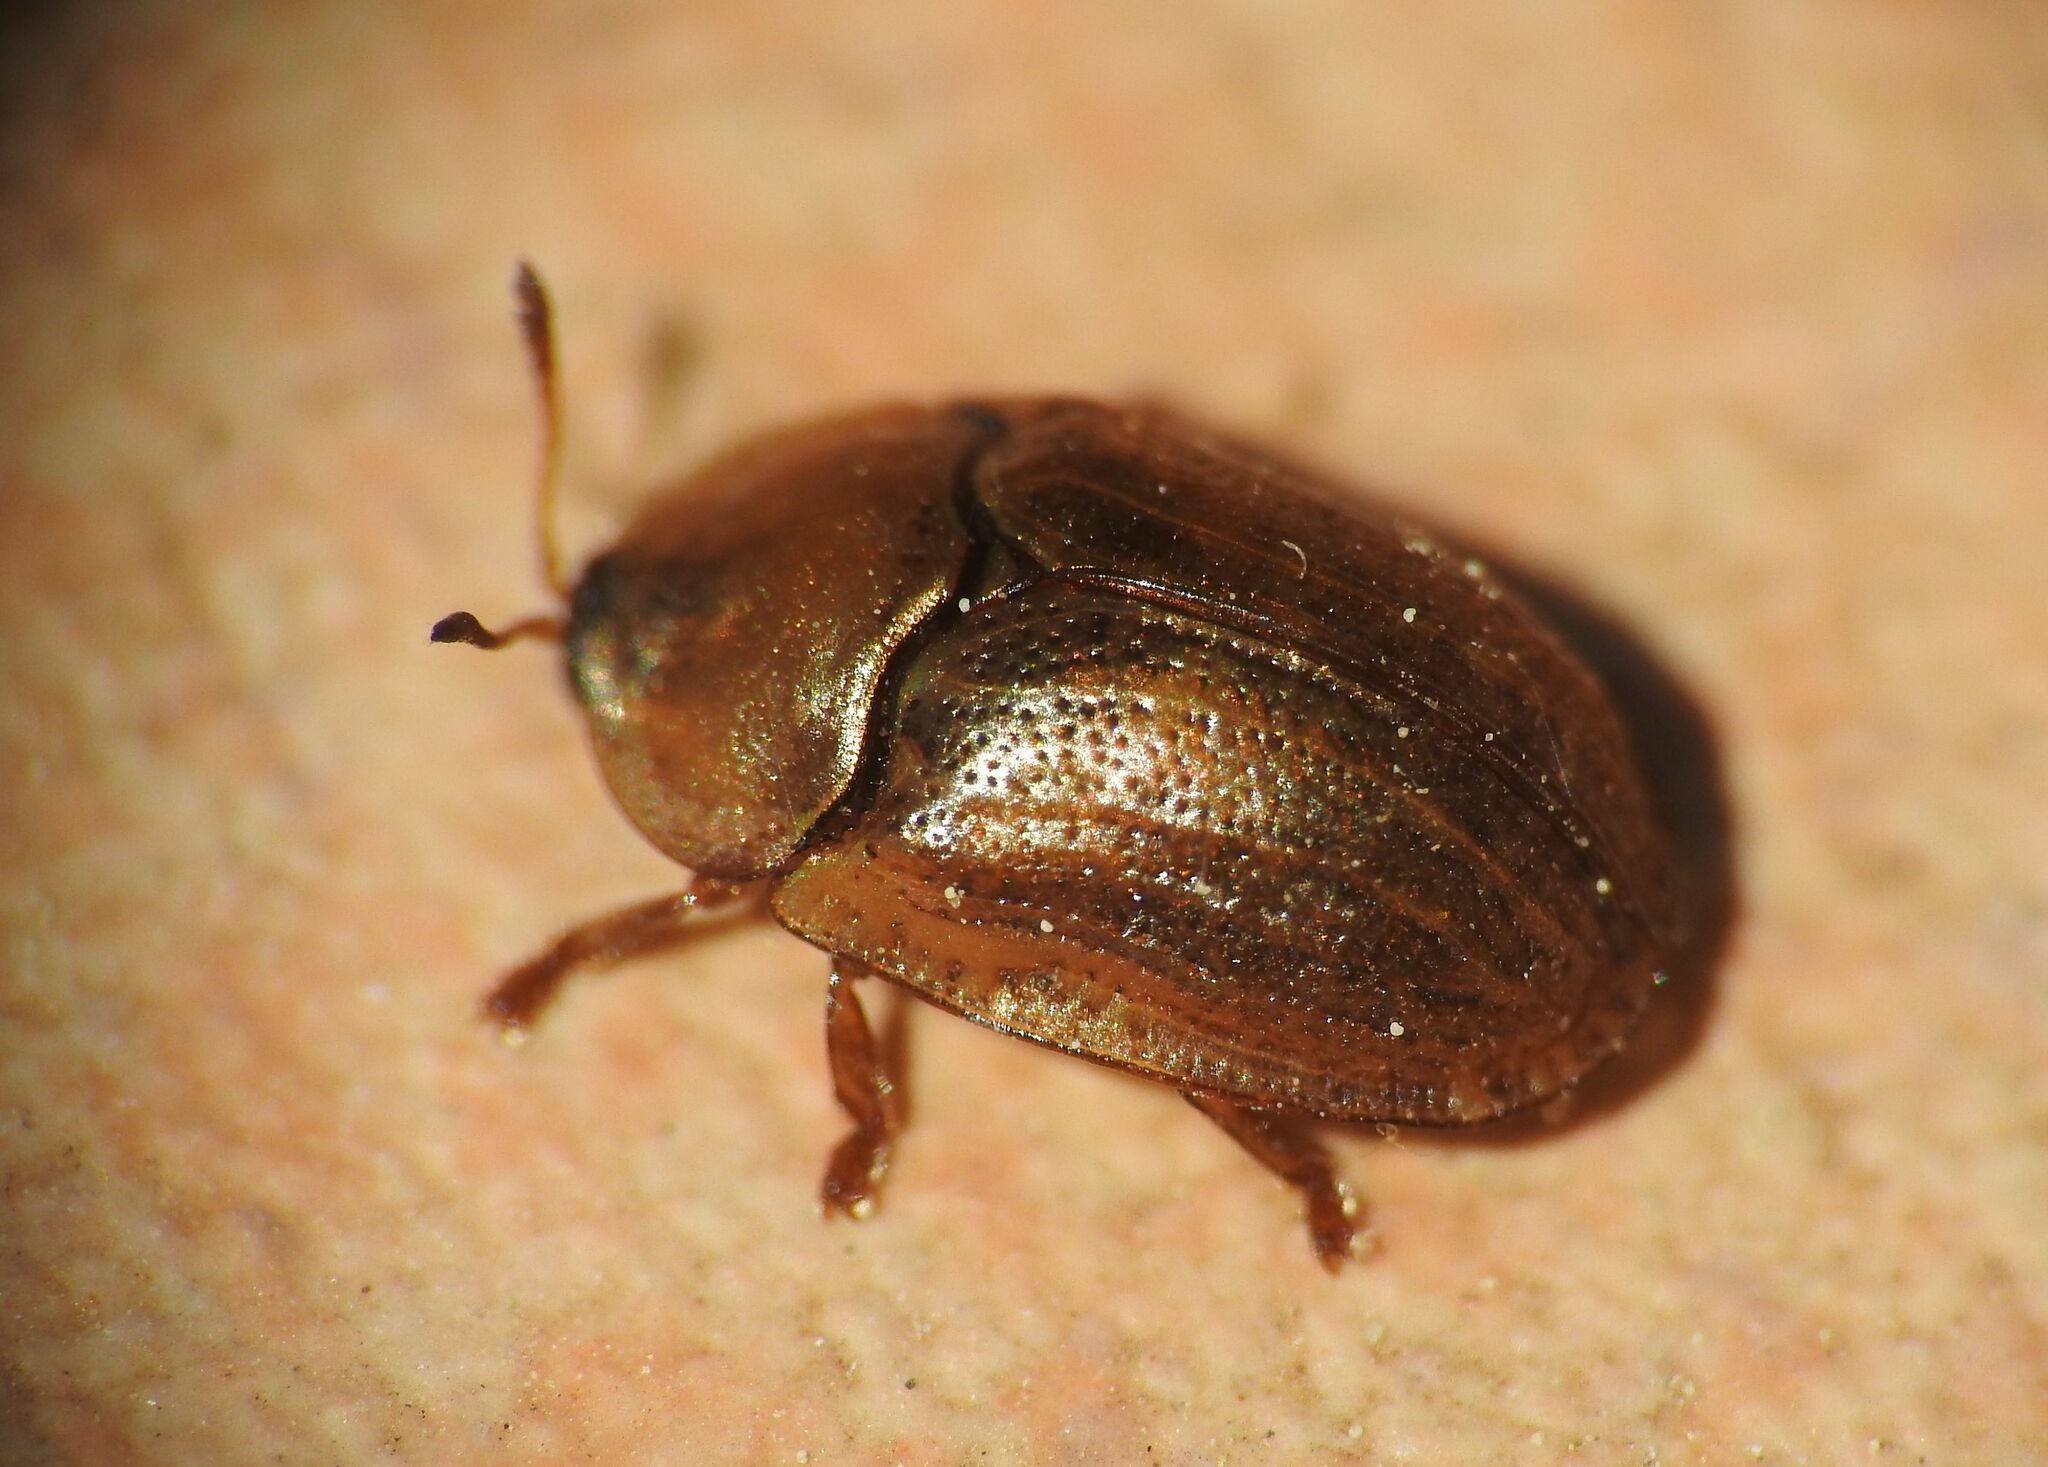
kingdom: Animalia
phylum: Arthropoda
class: Insecta
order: Coleoptera
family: Chrysomelidae
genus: Hypocassida
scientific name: Hypocassida meridionalis
